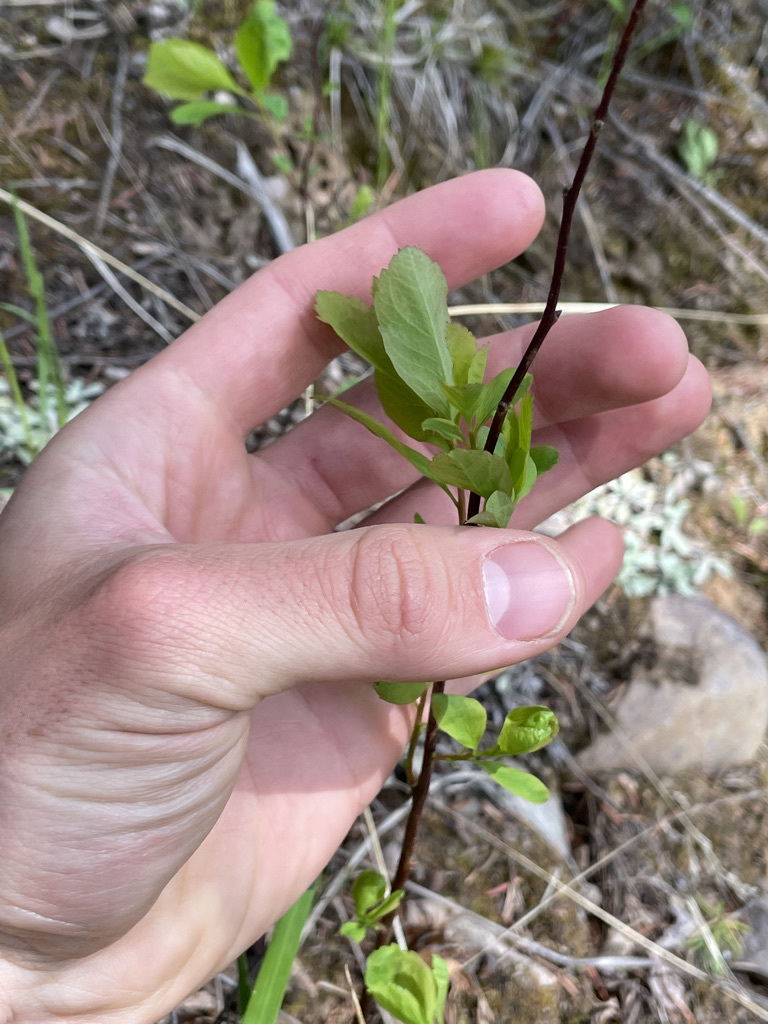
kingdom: Plantae
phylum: Tracheophyta
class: Magnoliopsida
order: Rosales
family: Rosaceae
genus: Spiraea
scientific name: Spiraea lucida
